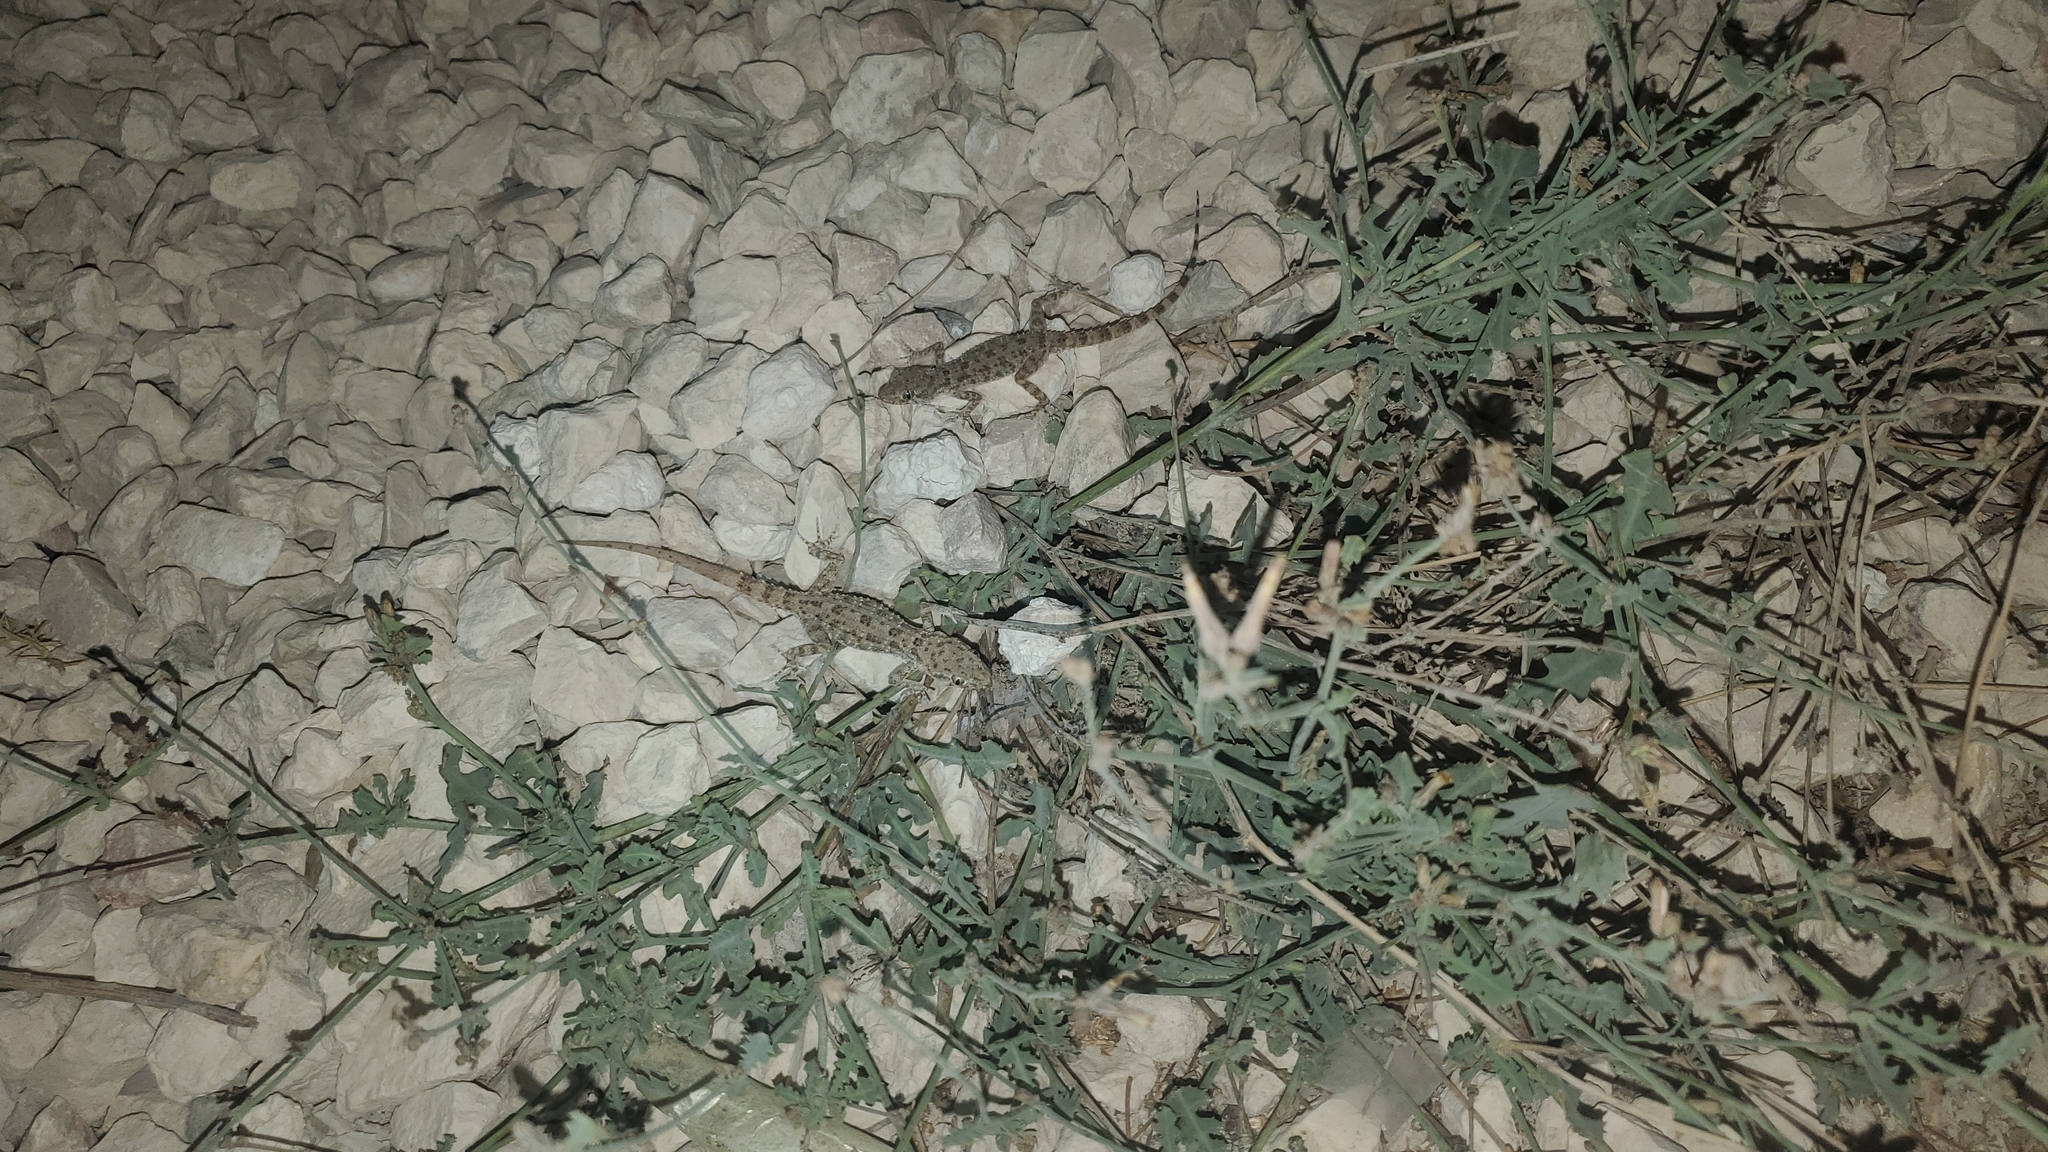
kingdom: Animalia
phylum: Chordata
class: Squamata
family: Gekkonidae
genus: Cyrtopodion
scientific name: Cyrtopodion scabrum
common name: Rough-tailed gecko
